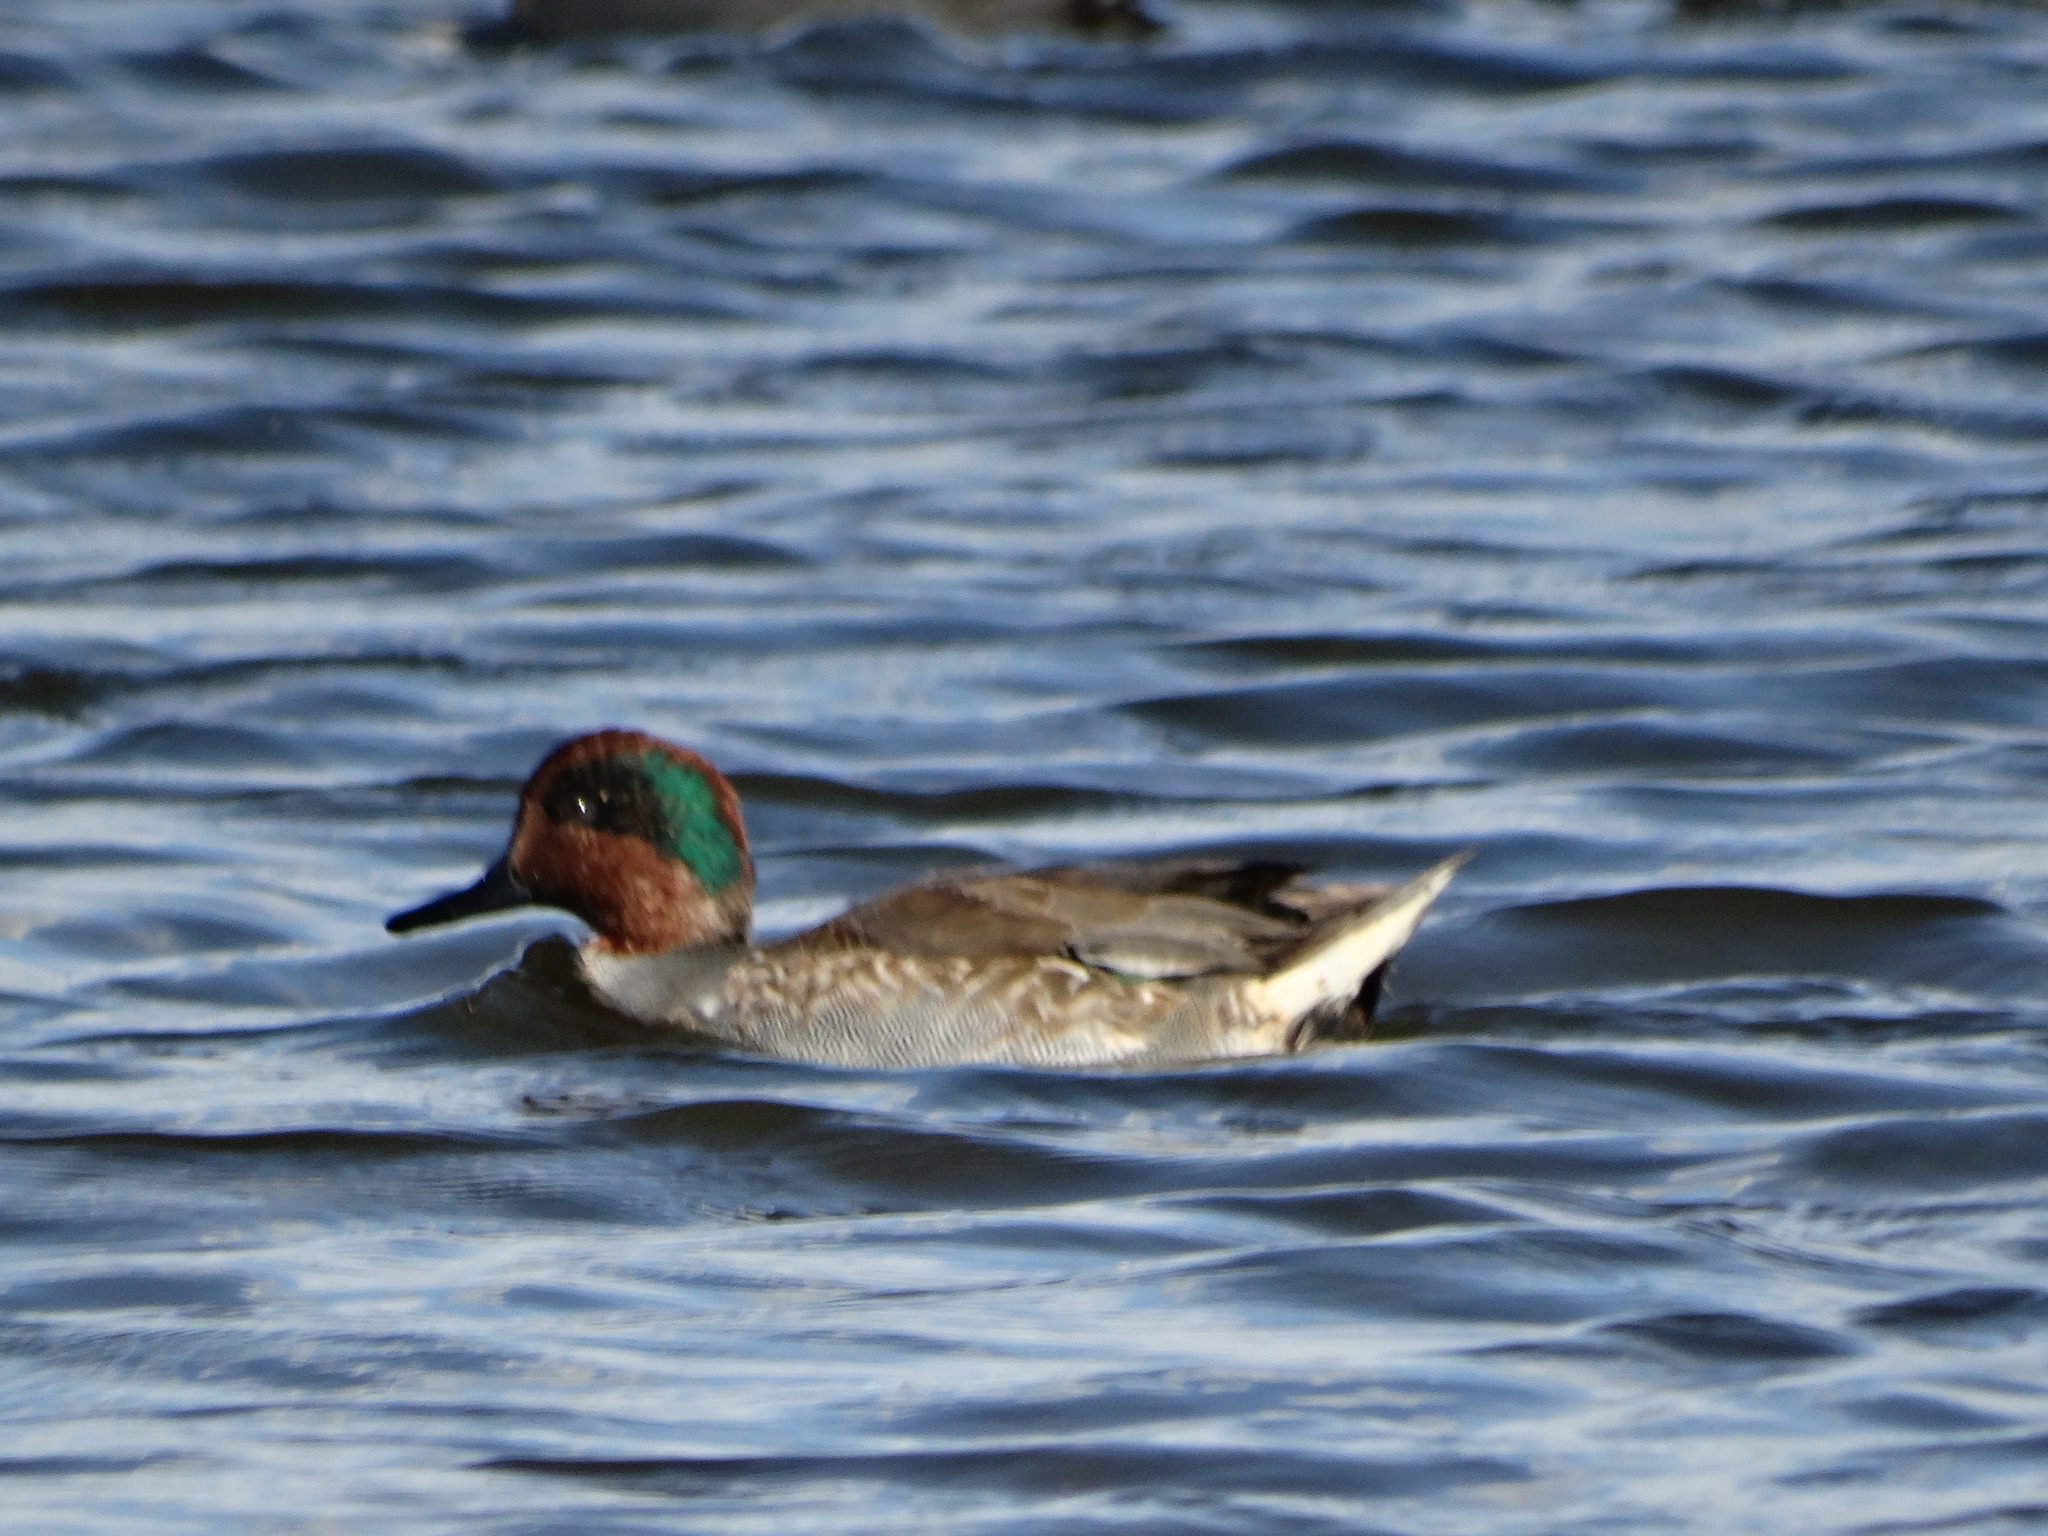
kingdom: Animalia
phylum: Chordata
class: Aves
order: Anseriformes
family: Anatidae
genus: Anas
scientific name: Anas carolinensis
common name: Green-winged teal
